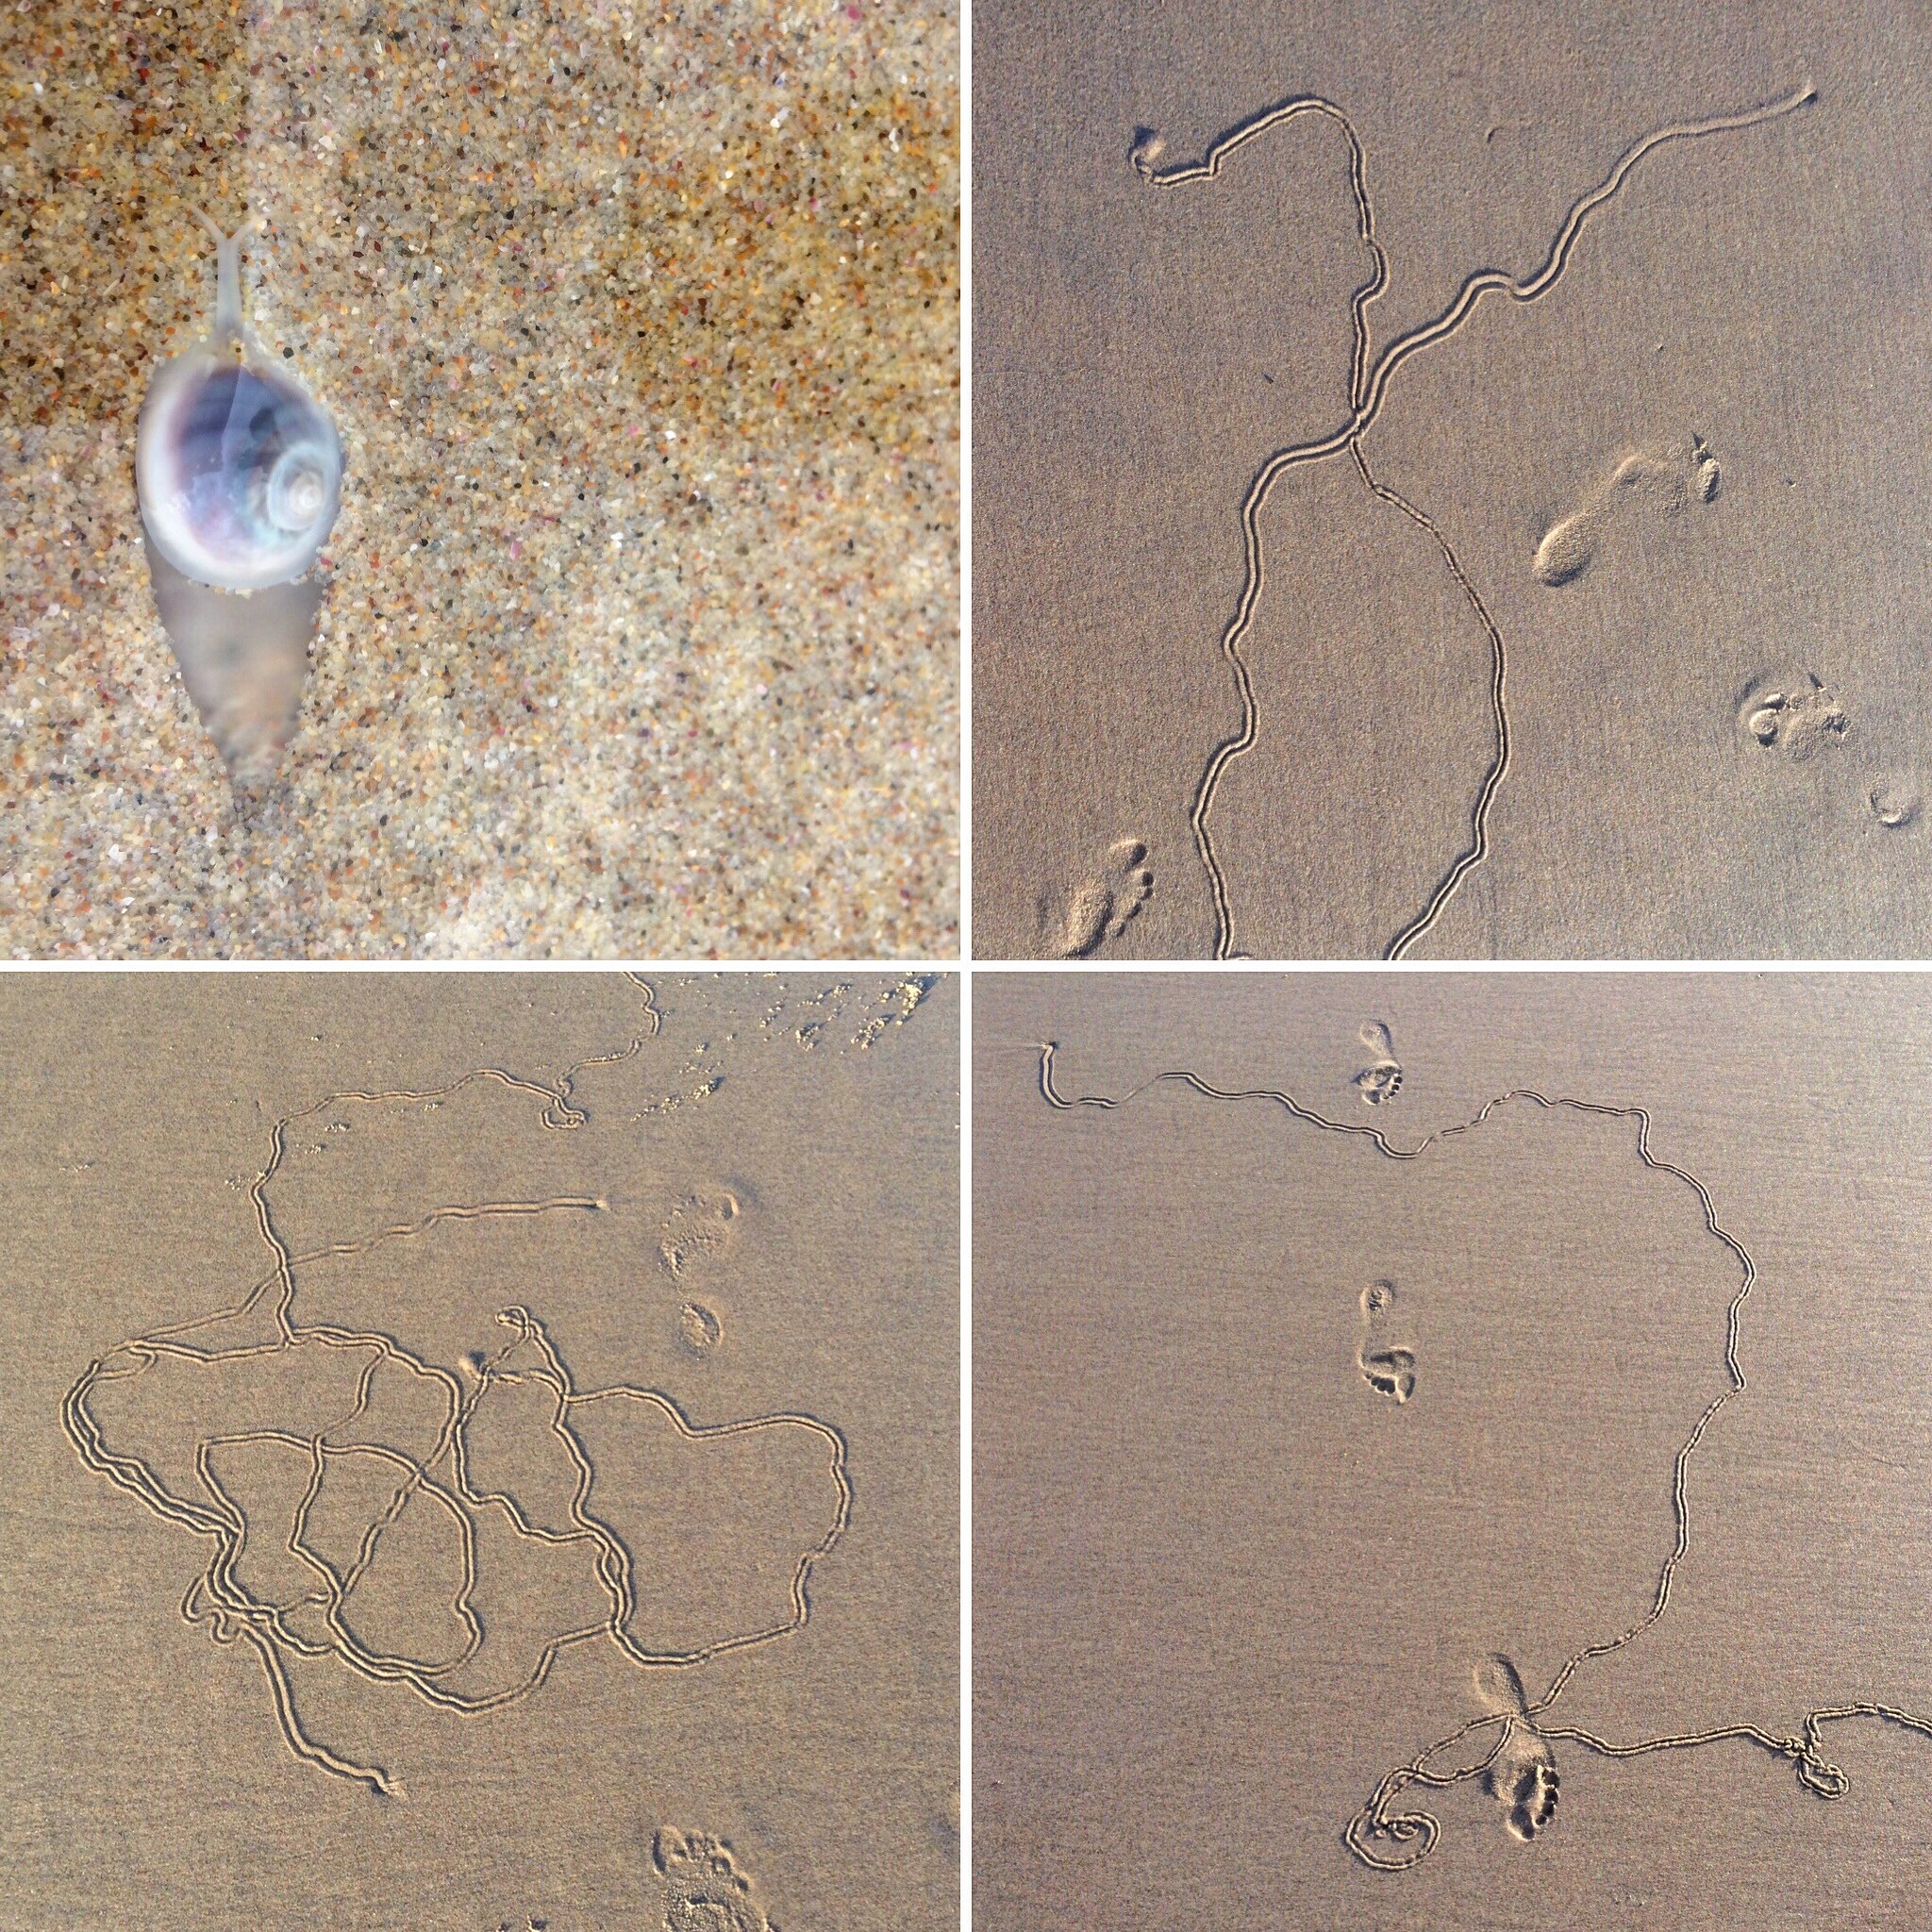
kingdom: Animalia
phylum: Mollusca
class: Gastropoda
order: Littorinimorpha
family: Naticidae
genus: Conuber
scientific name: Conuber incei
